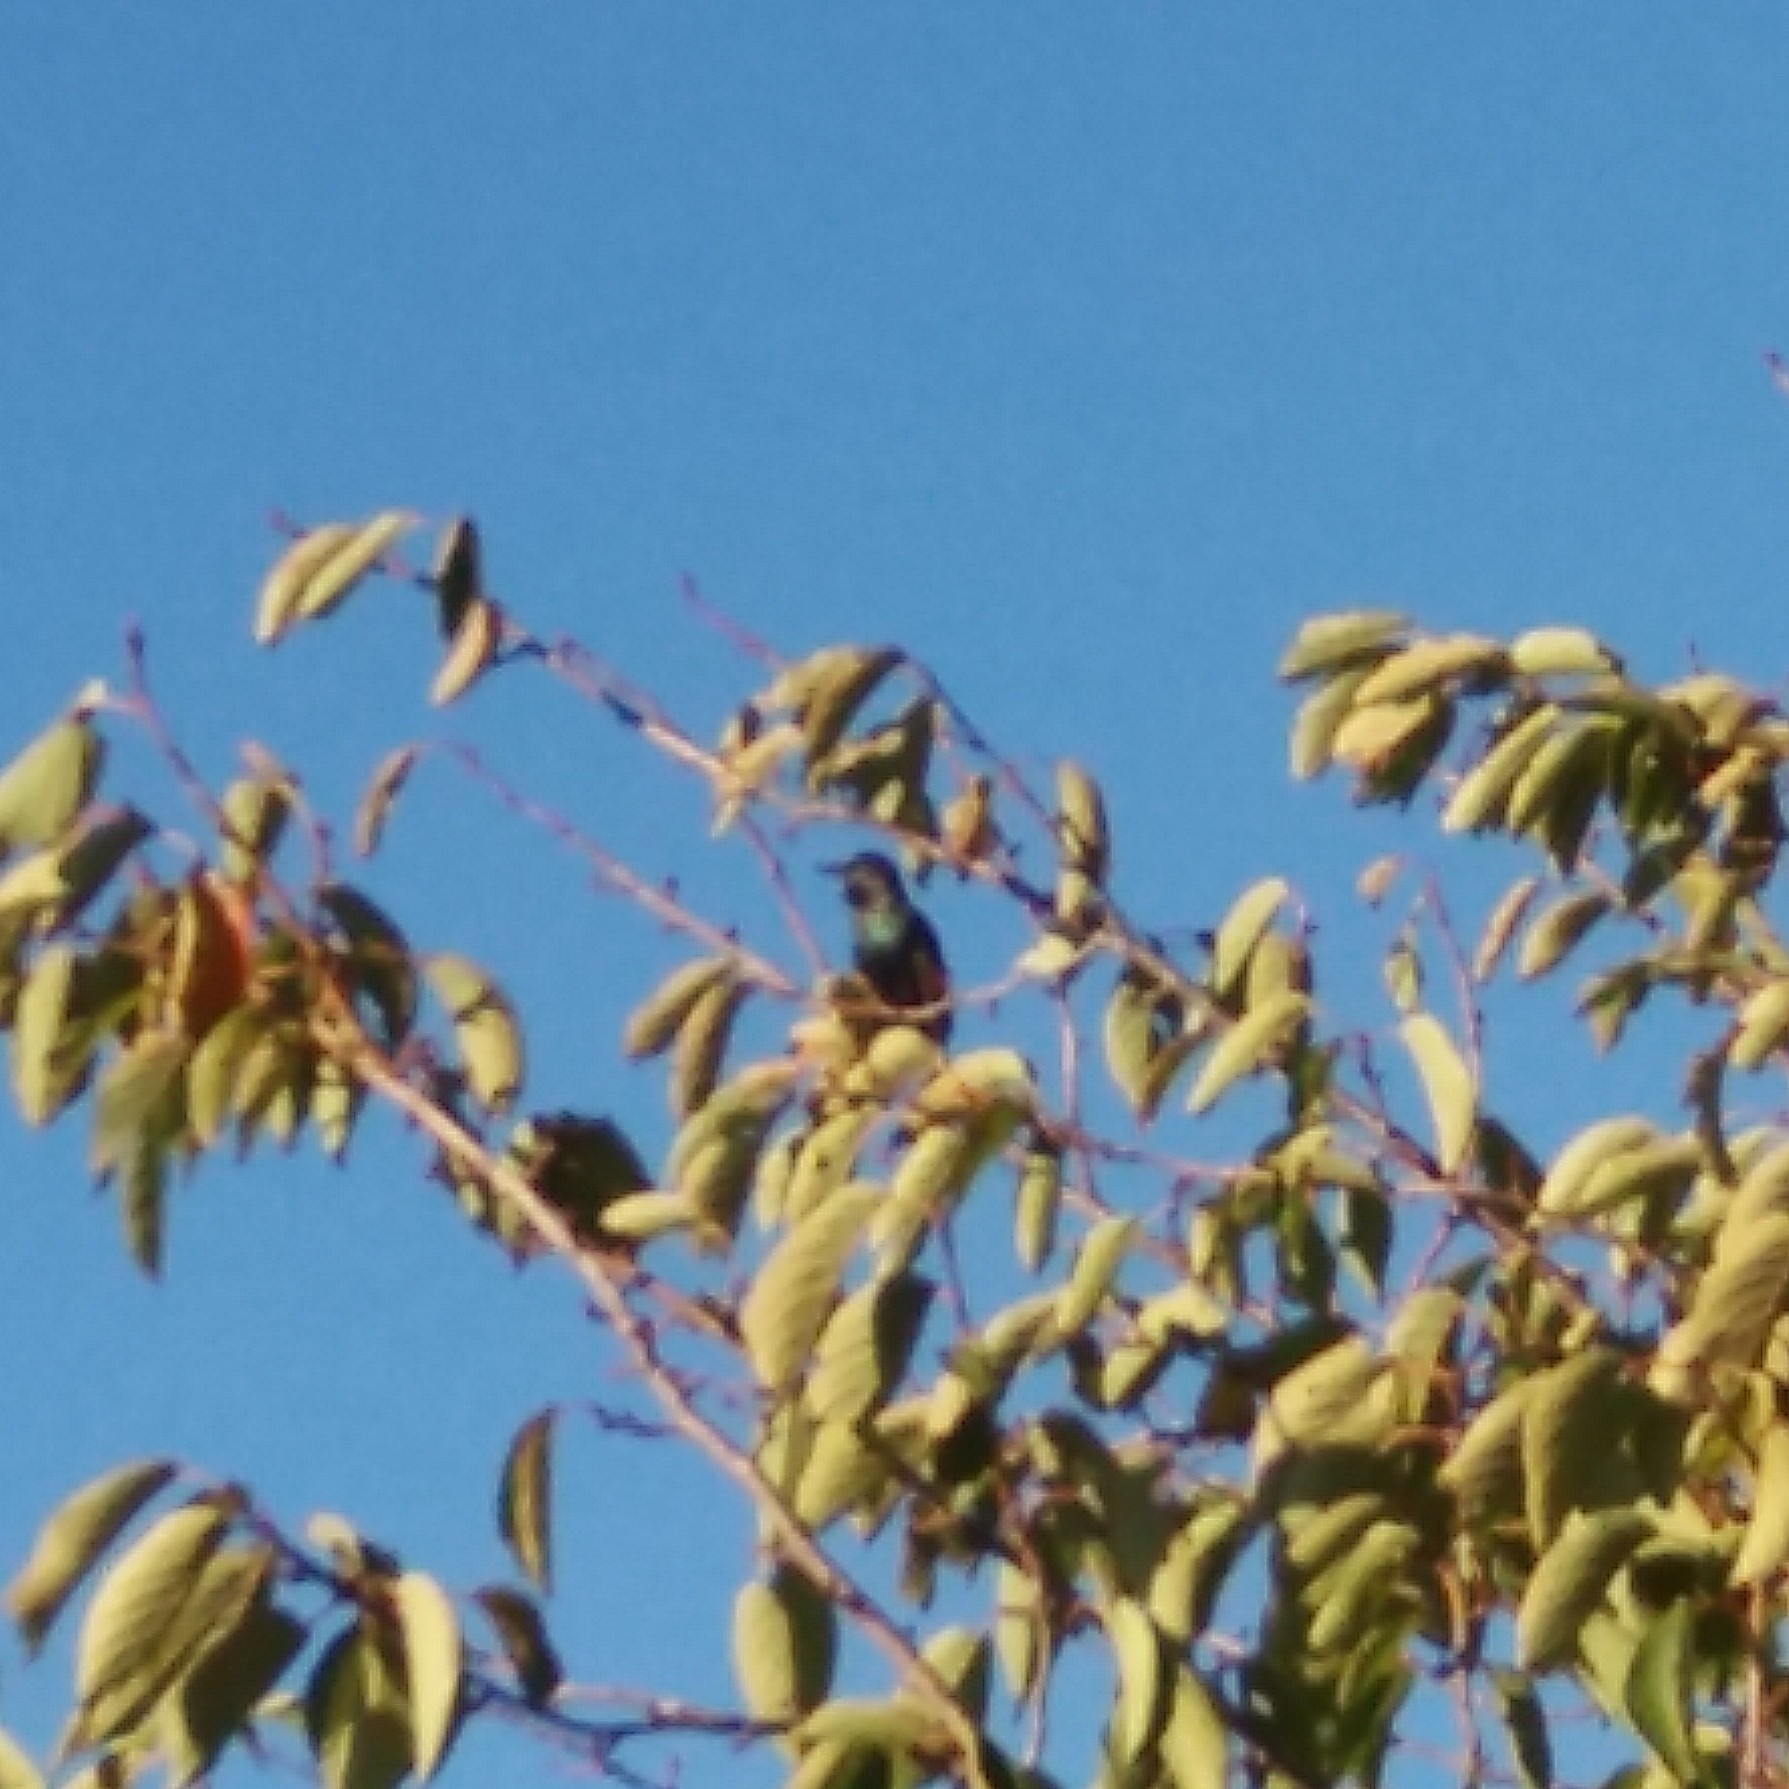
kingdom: Animalia
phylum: Chordata
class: Aves
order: Passeriformes
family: Sturnidae
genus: Sturnus
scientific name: Sturnus vulgaris
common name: Common starling
